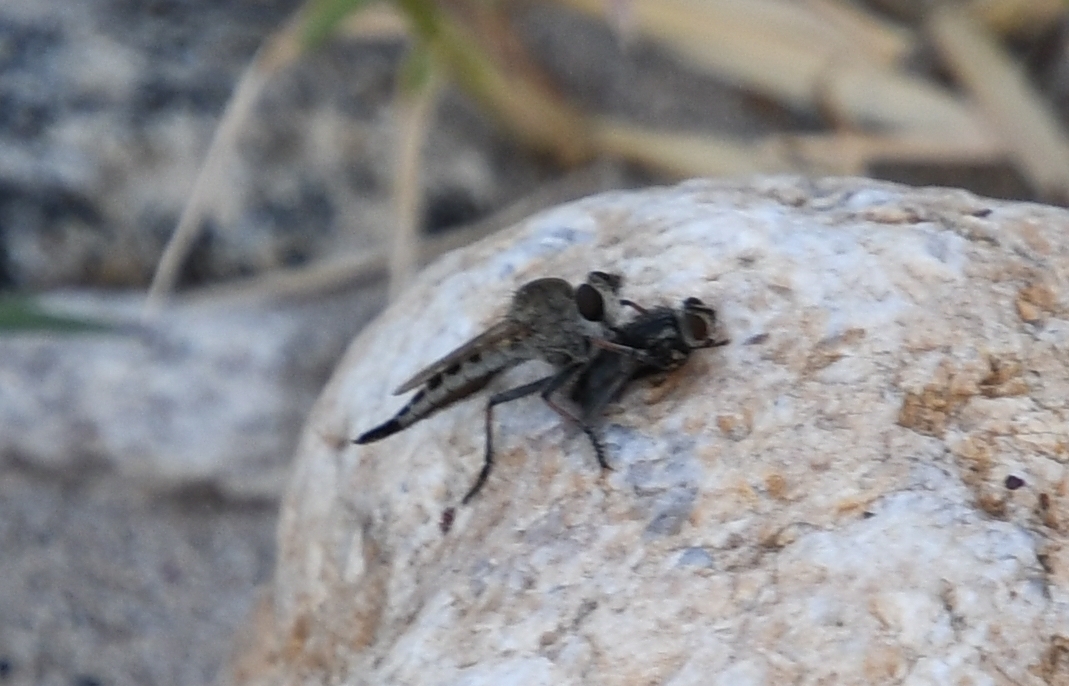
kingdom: Animalia
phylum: Arthropoda
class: Insecta
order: Diptera
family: Asilidae
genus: Efferia
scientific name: Efferia albibarbis
